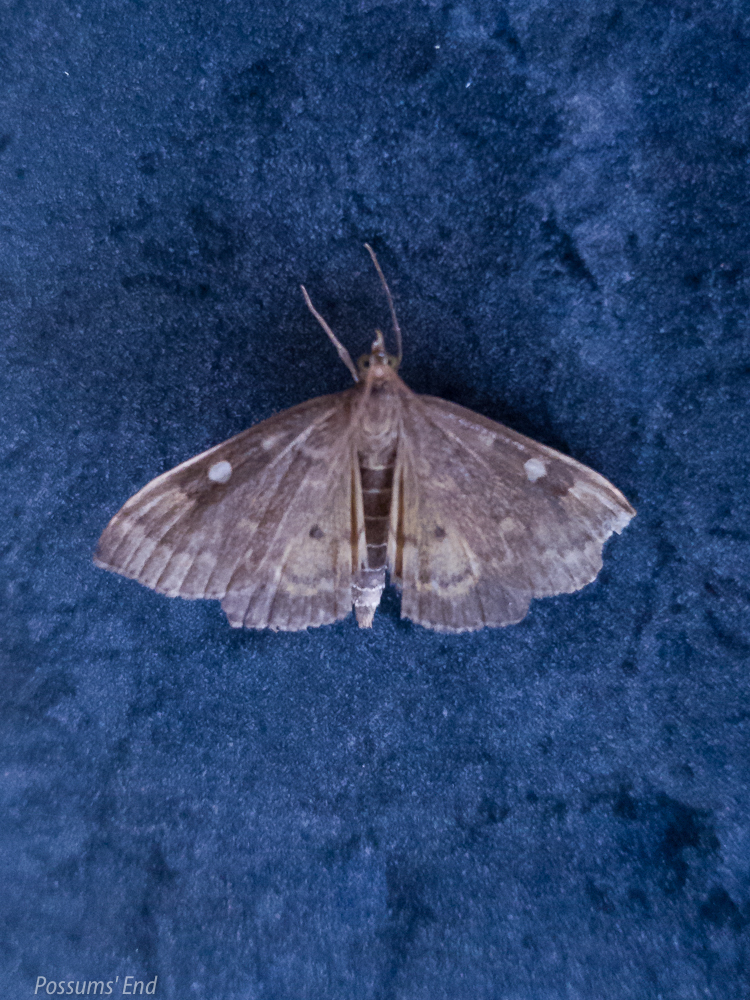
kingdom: Animalia
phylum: Arthropoda
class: Insecta
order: Lepidoptera
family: Crambidae
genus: Udea
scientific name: Udea Mnesictena marmarina
